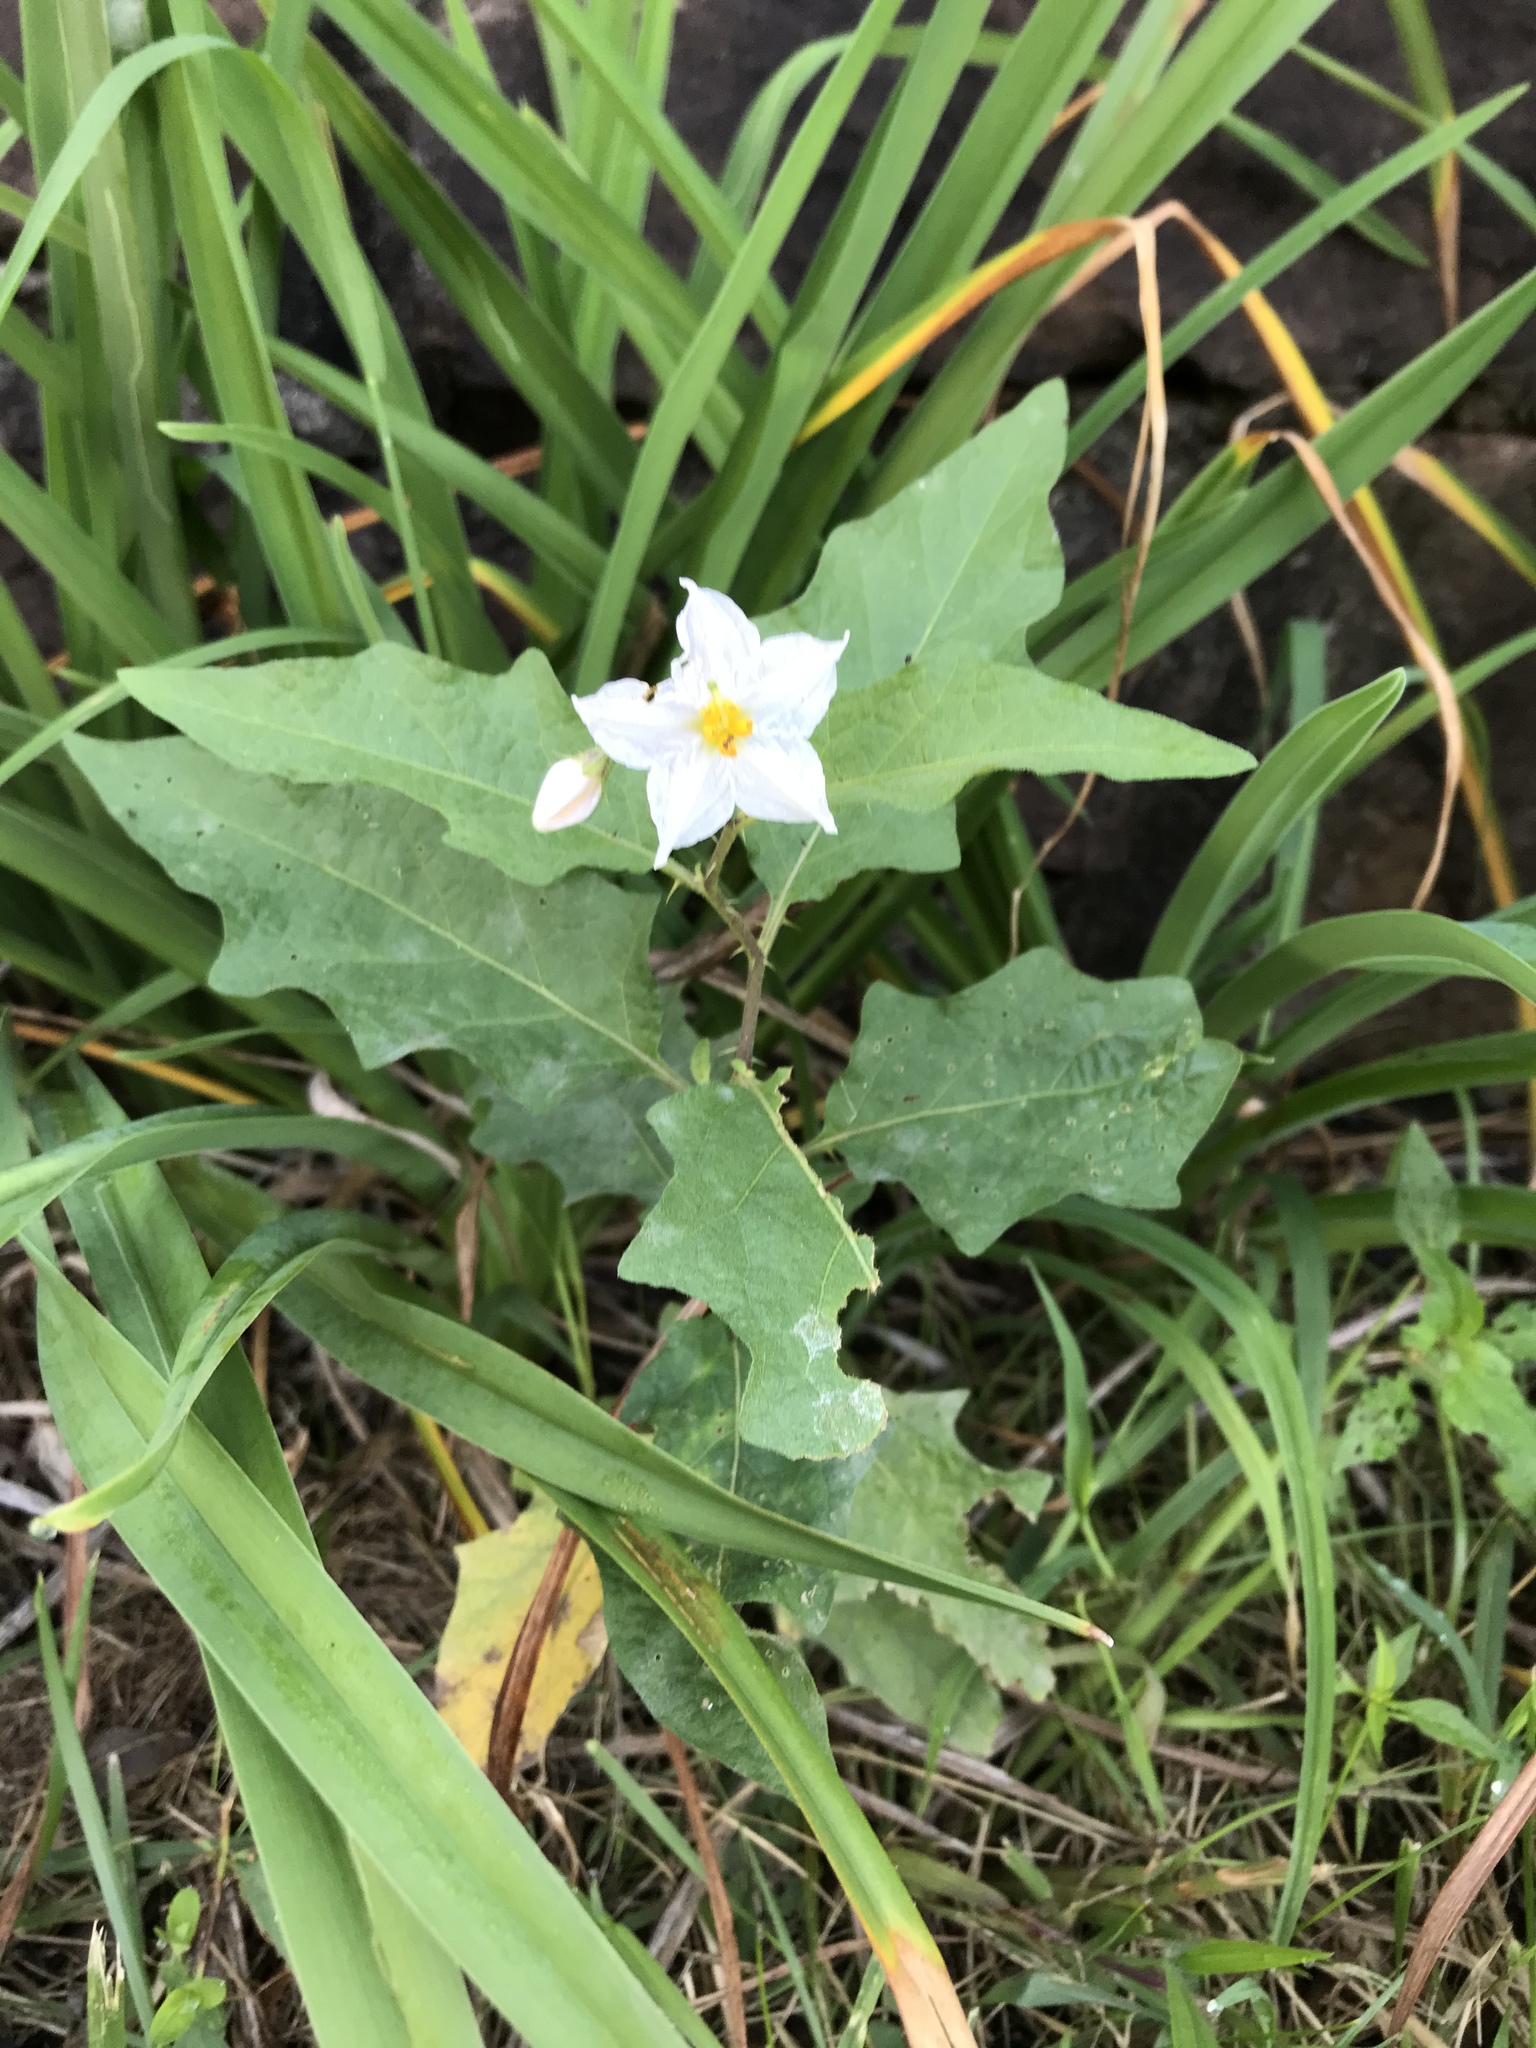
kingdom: Plantae
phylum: Tracheophyta
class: Magnoliopsida
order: Solanales
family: Solanaceae
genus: Solanum
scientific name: Solanum carolinense
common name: Horse-nettle
